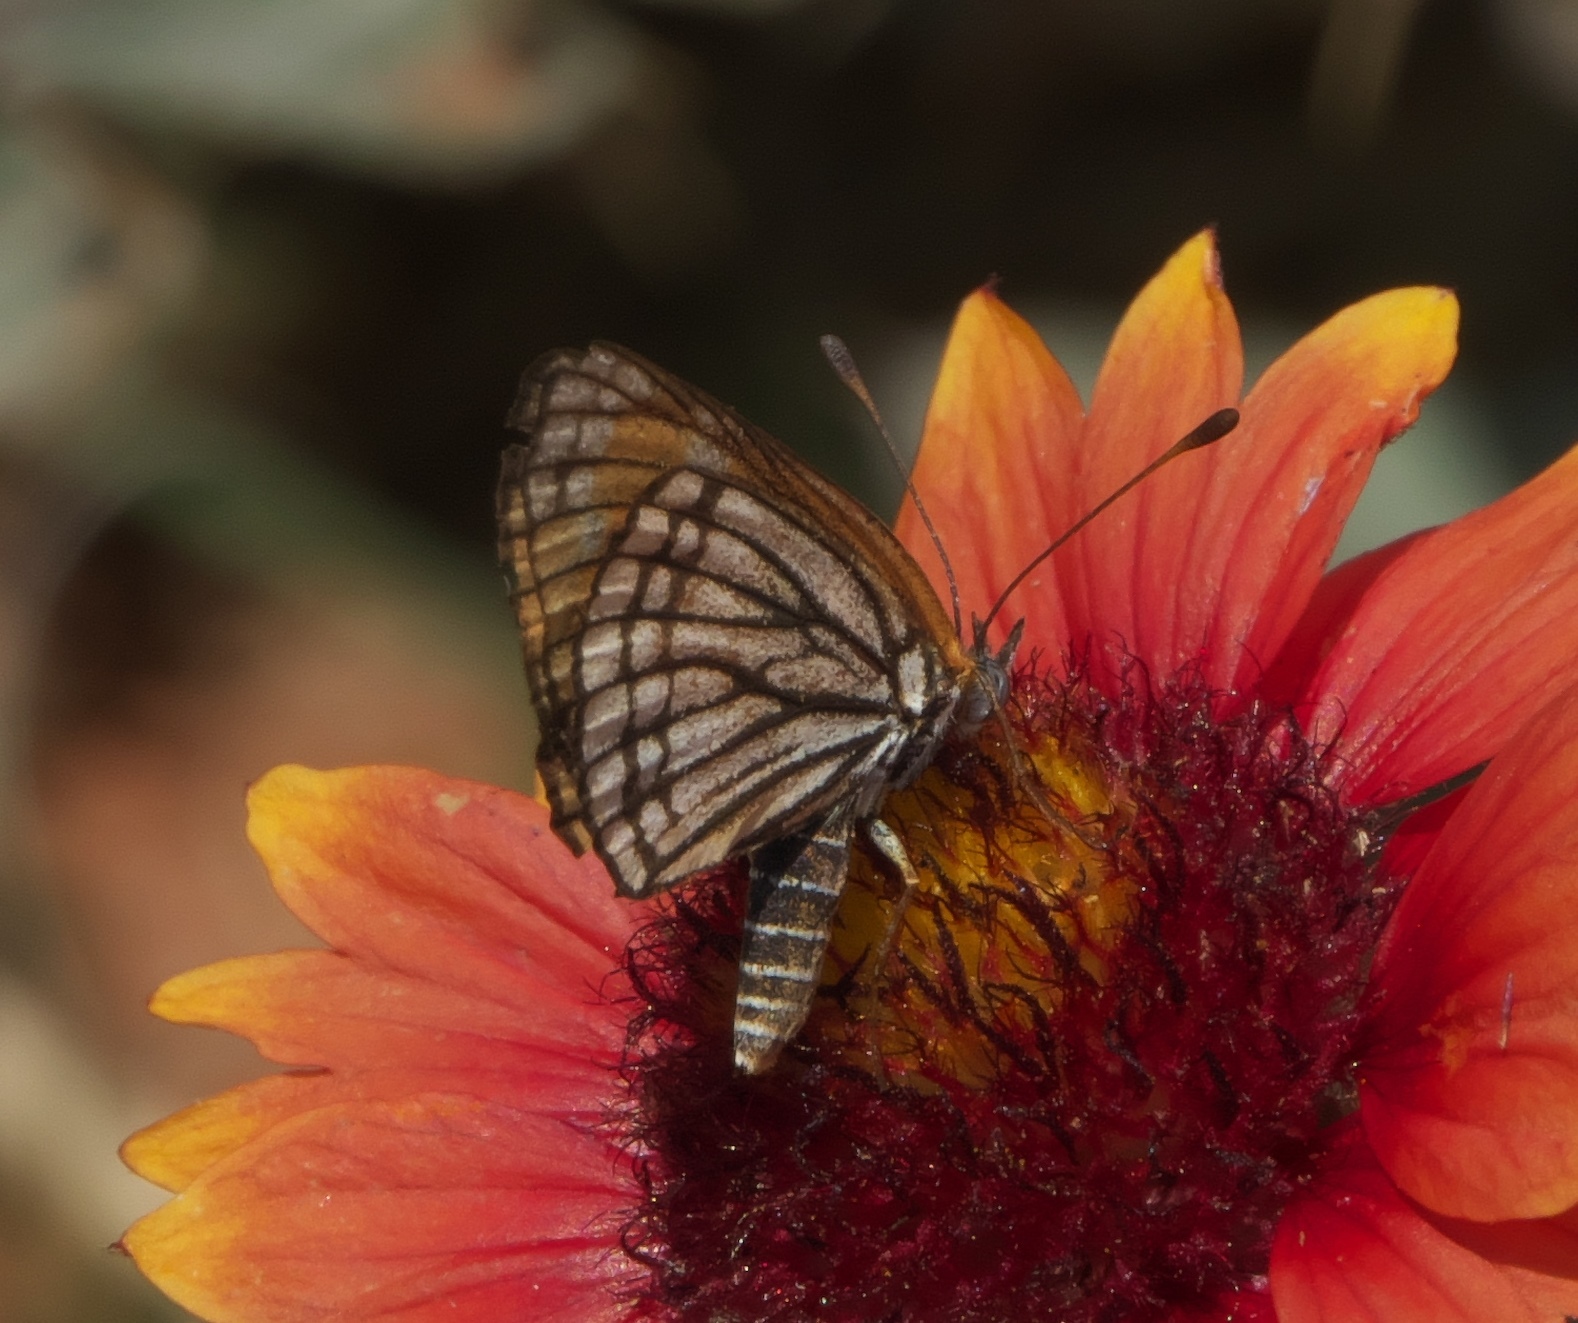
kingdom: Animalia
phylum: Arthropoda
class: Insecta
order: Lepidoptera
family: Nymphalidae
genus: Thessalia
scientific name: Thessalia leanira
